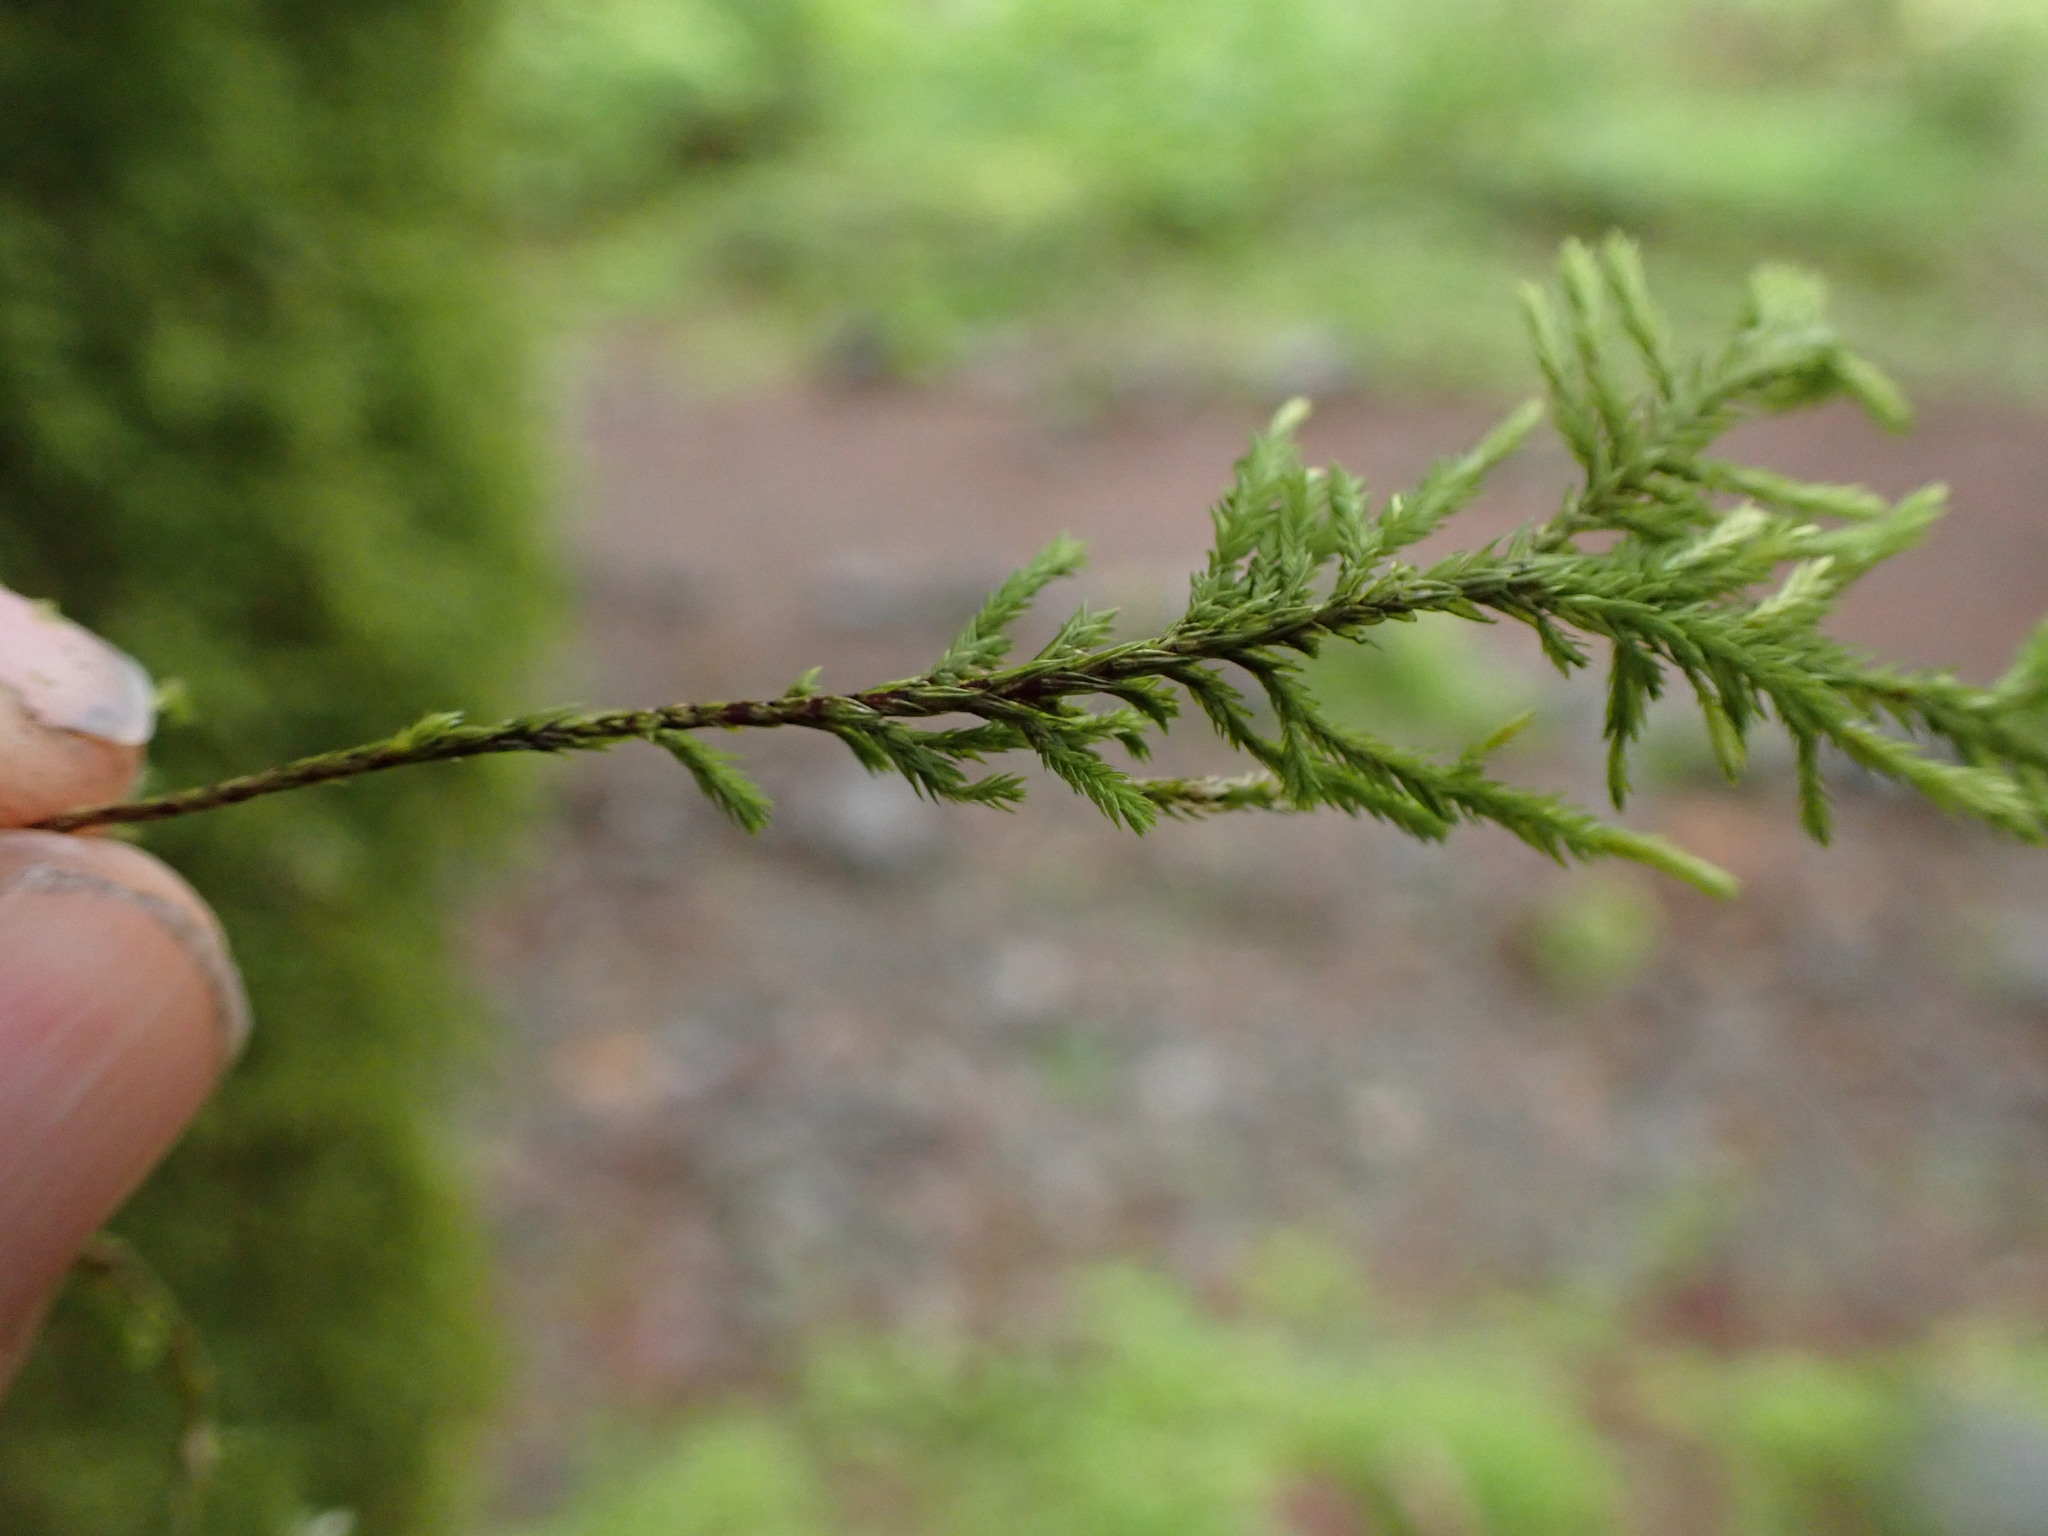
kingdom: Plantae
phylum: Bryophyta
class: Bryopsida
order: Hypnales
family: Cryphaeaceae
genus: Dendroalsia
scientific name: Dendroalsia abietina
